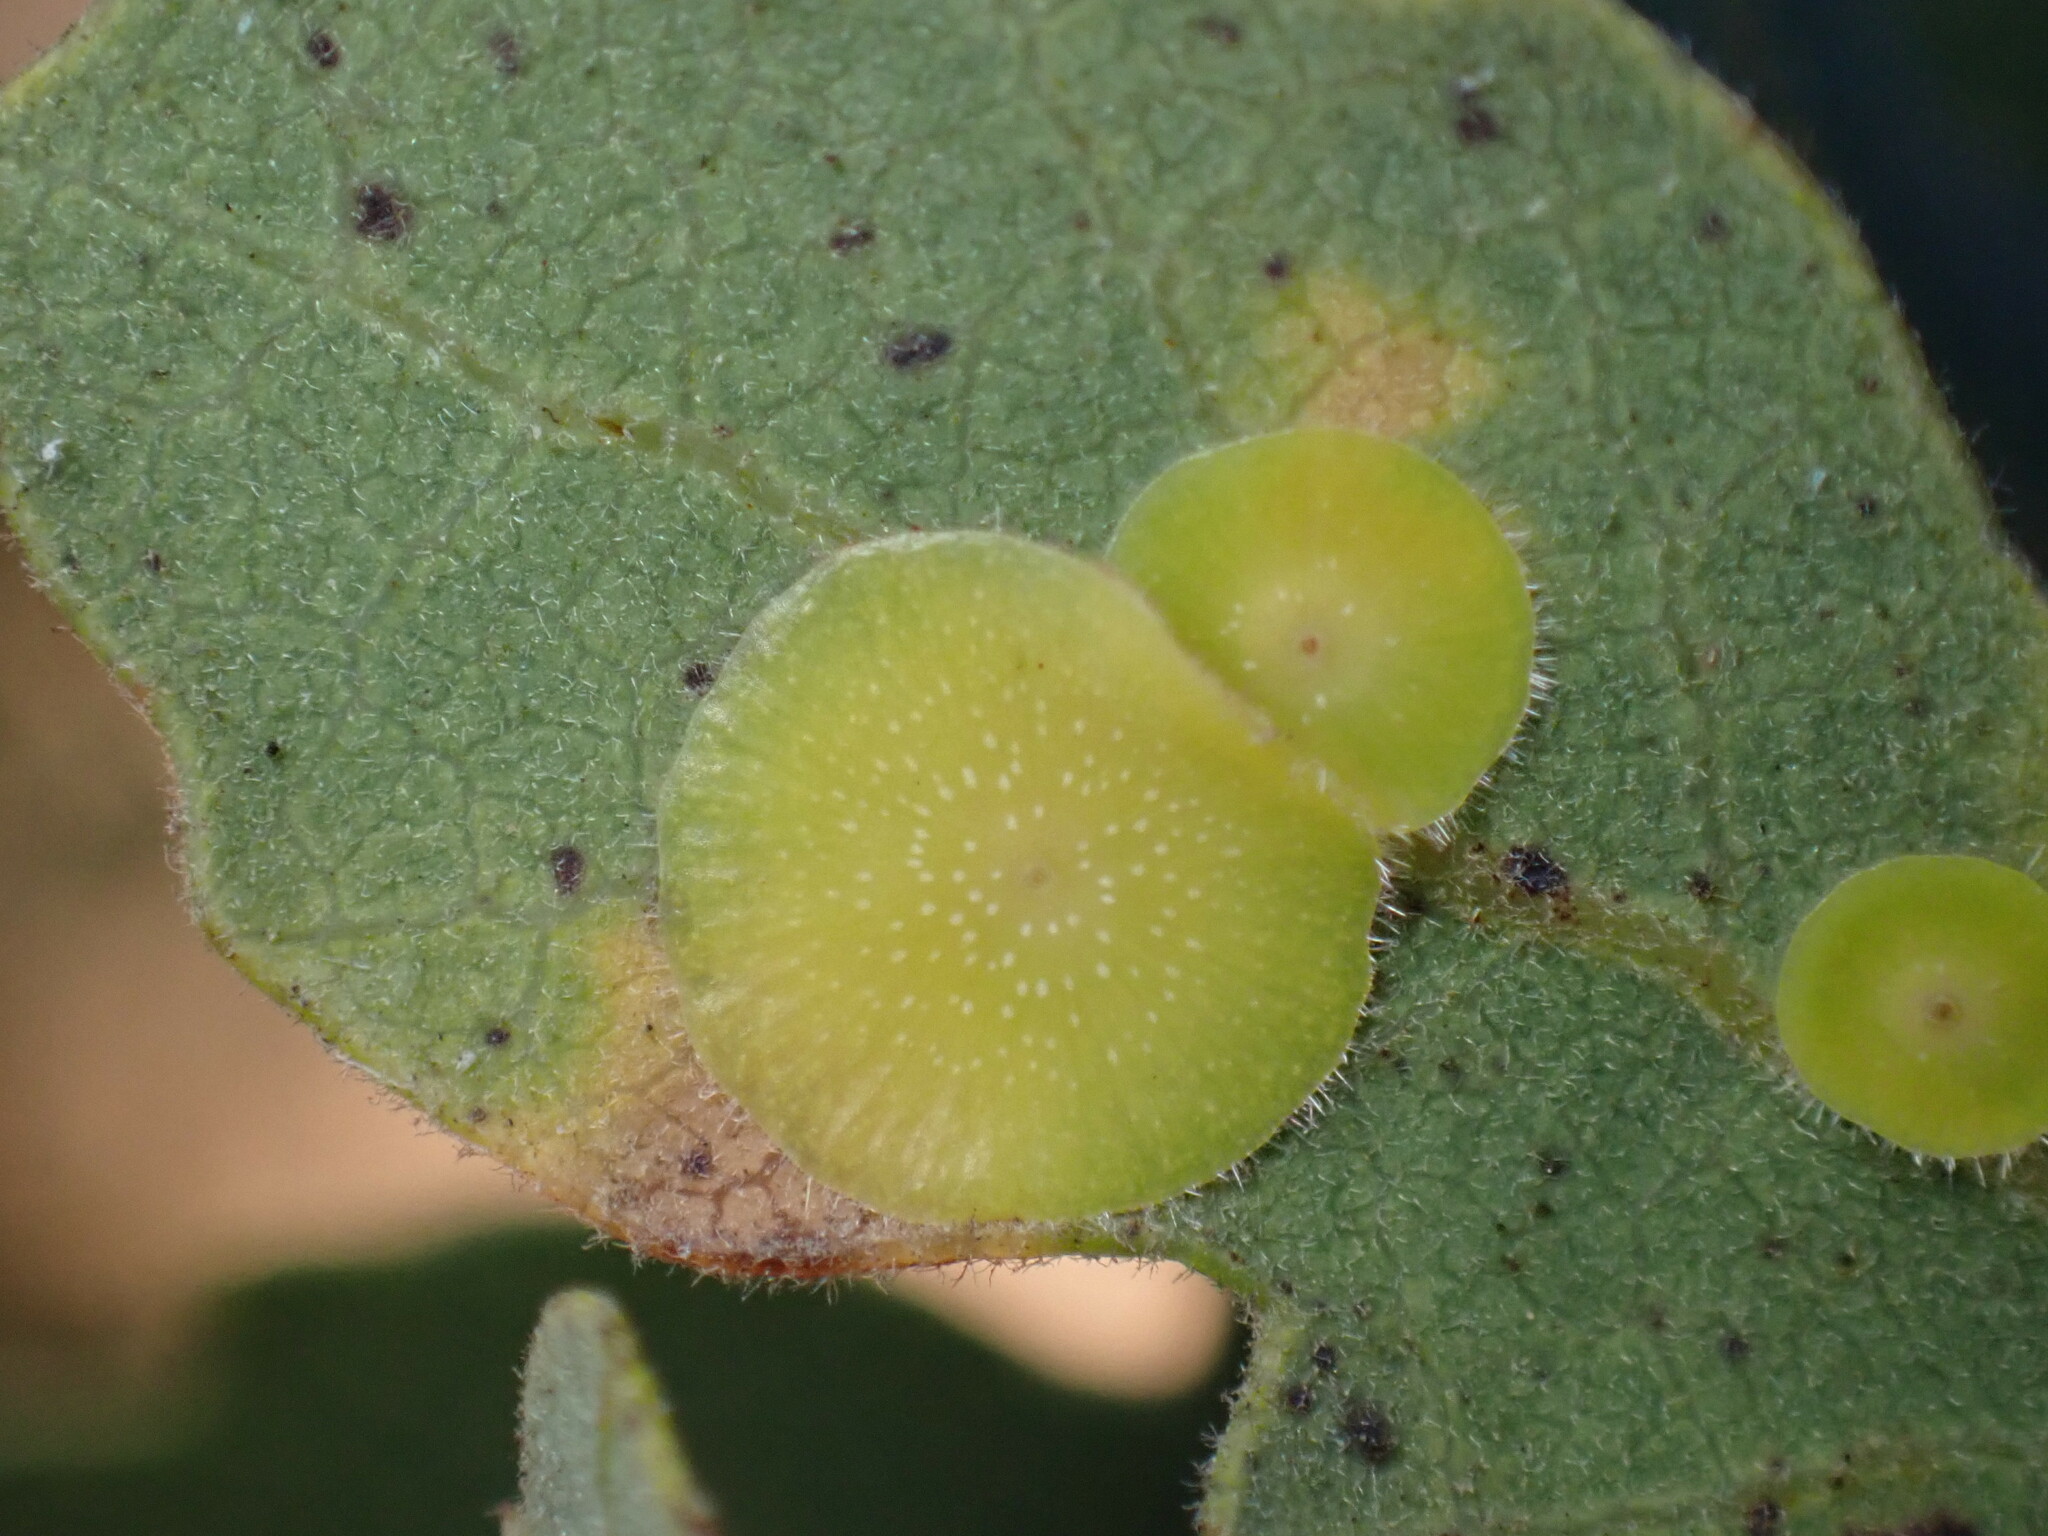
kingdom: Animalia
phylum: Arthropoda
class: Insecta
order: Hymenoptera
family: Cynipidae
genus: Andricus
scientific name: Andricus
